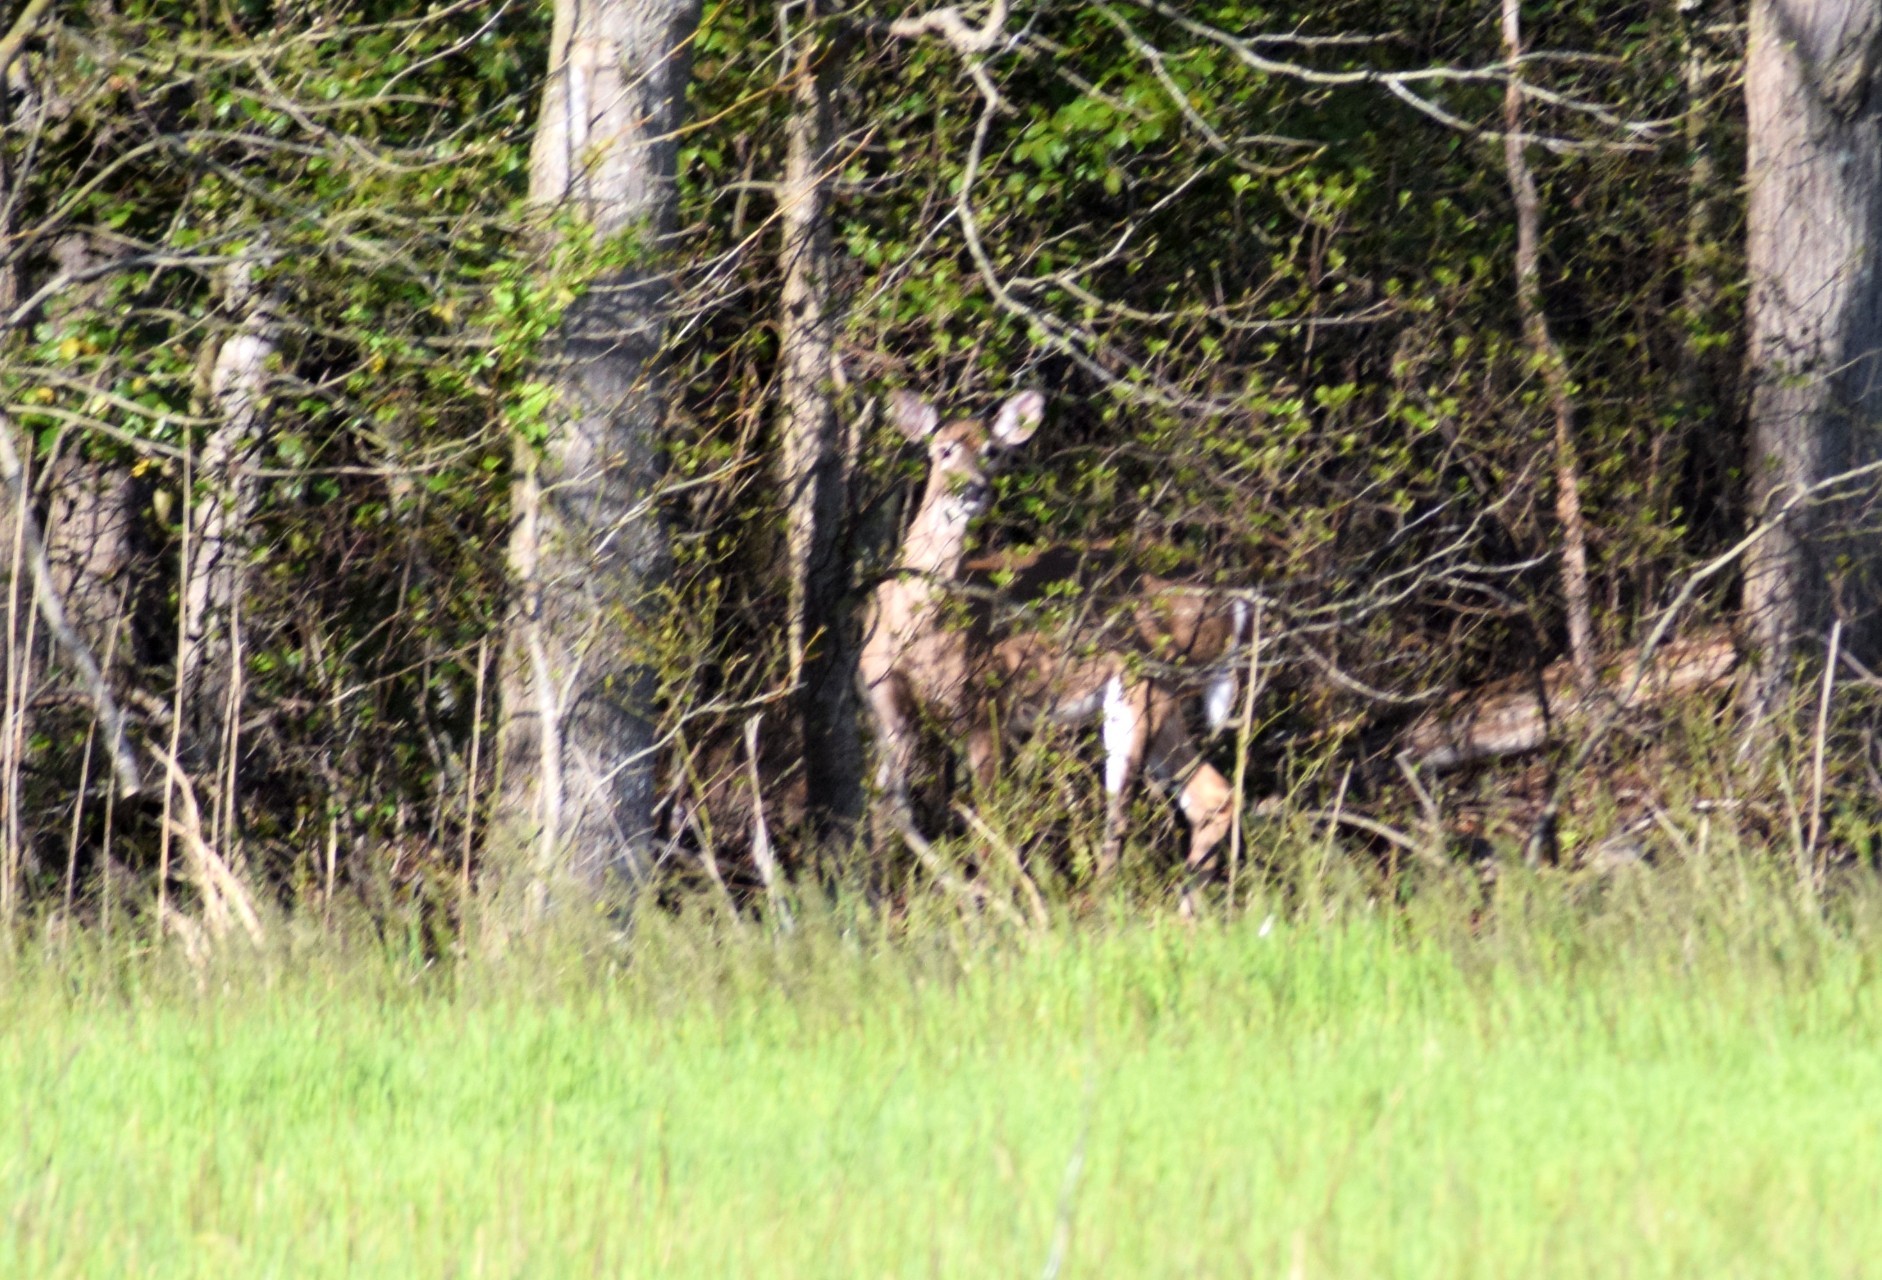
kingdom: Animalia
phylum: Chordata
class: Mammalia
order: Artiodactyla
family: Cervidae
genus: Odocoileus
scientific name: Odocoileus virginianus
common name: White-tailed deer
